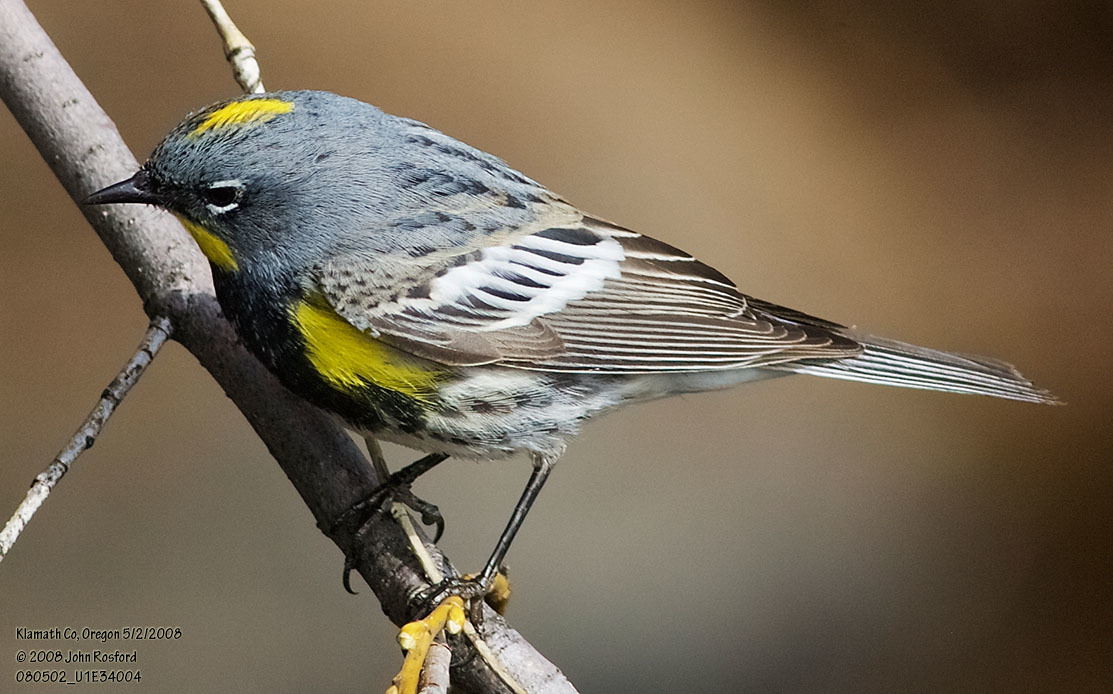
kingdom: Animalia
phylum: Chordata
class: Aves
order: Passeriformes
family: Parulidae
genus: Setophaga
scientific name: Setophaga auduboni
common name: Audubon's warbler
